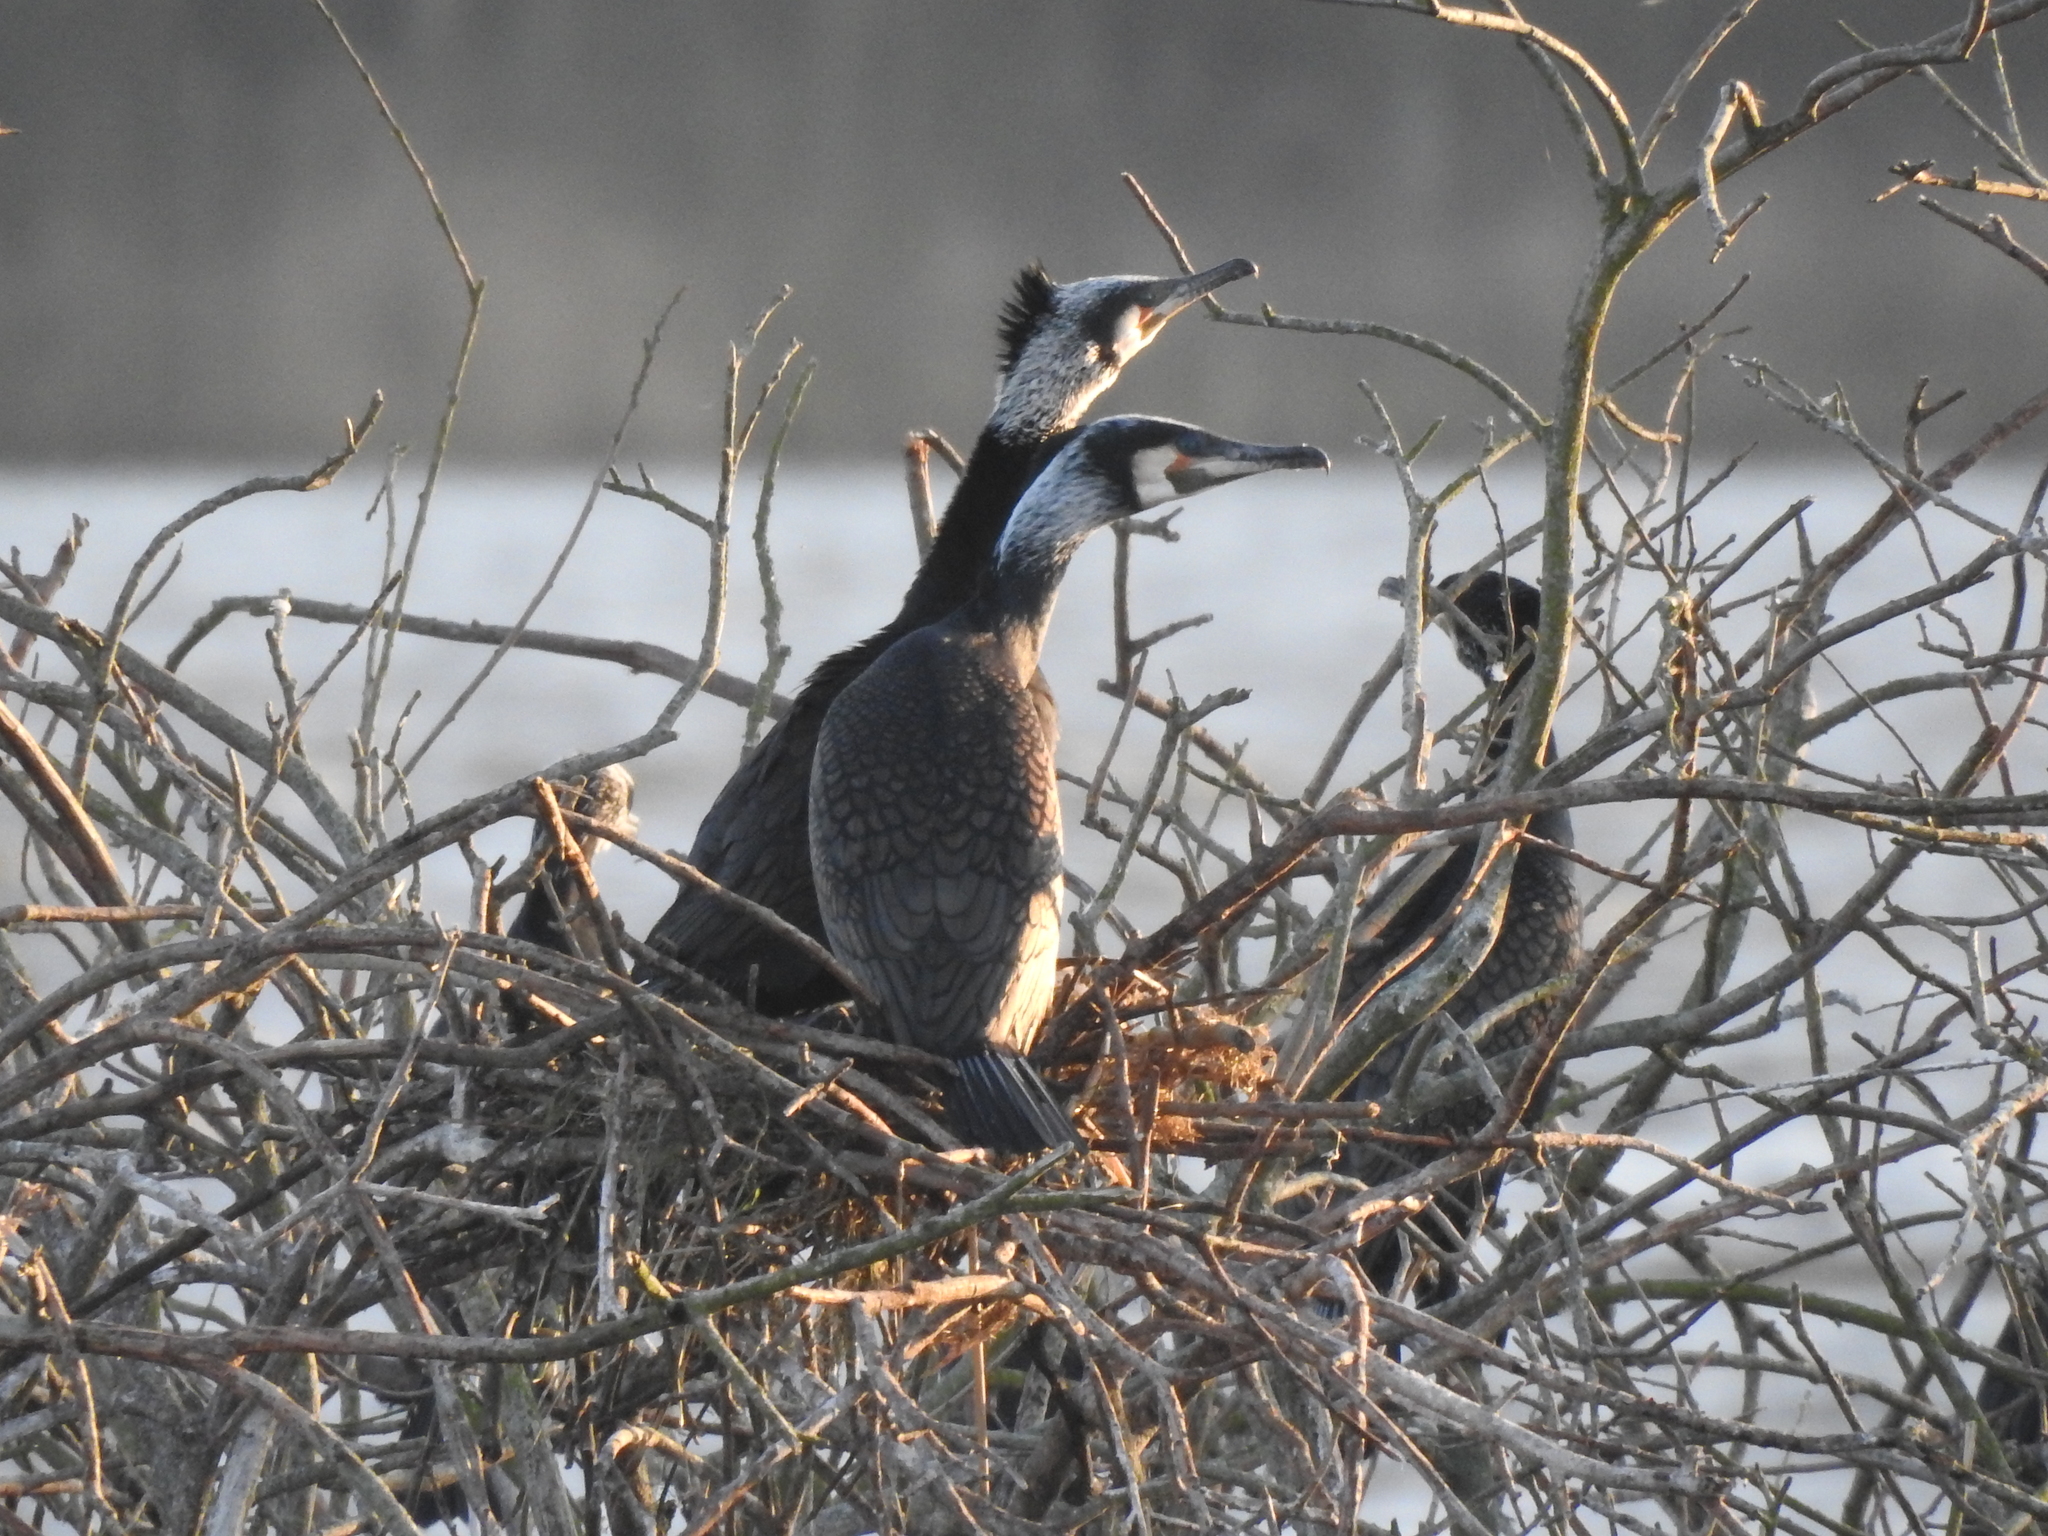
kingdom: Animalia
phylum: Chordata
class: Aves
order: Suliformes
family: Phalacrocoracidae
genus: Phalacrocorax
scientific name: Phalacrocorax carbo
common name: Great cormorant
